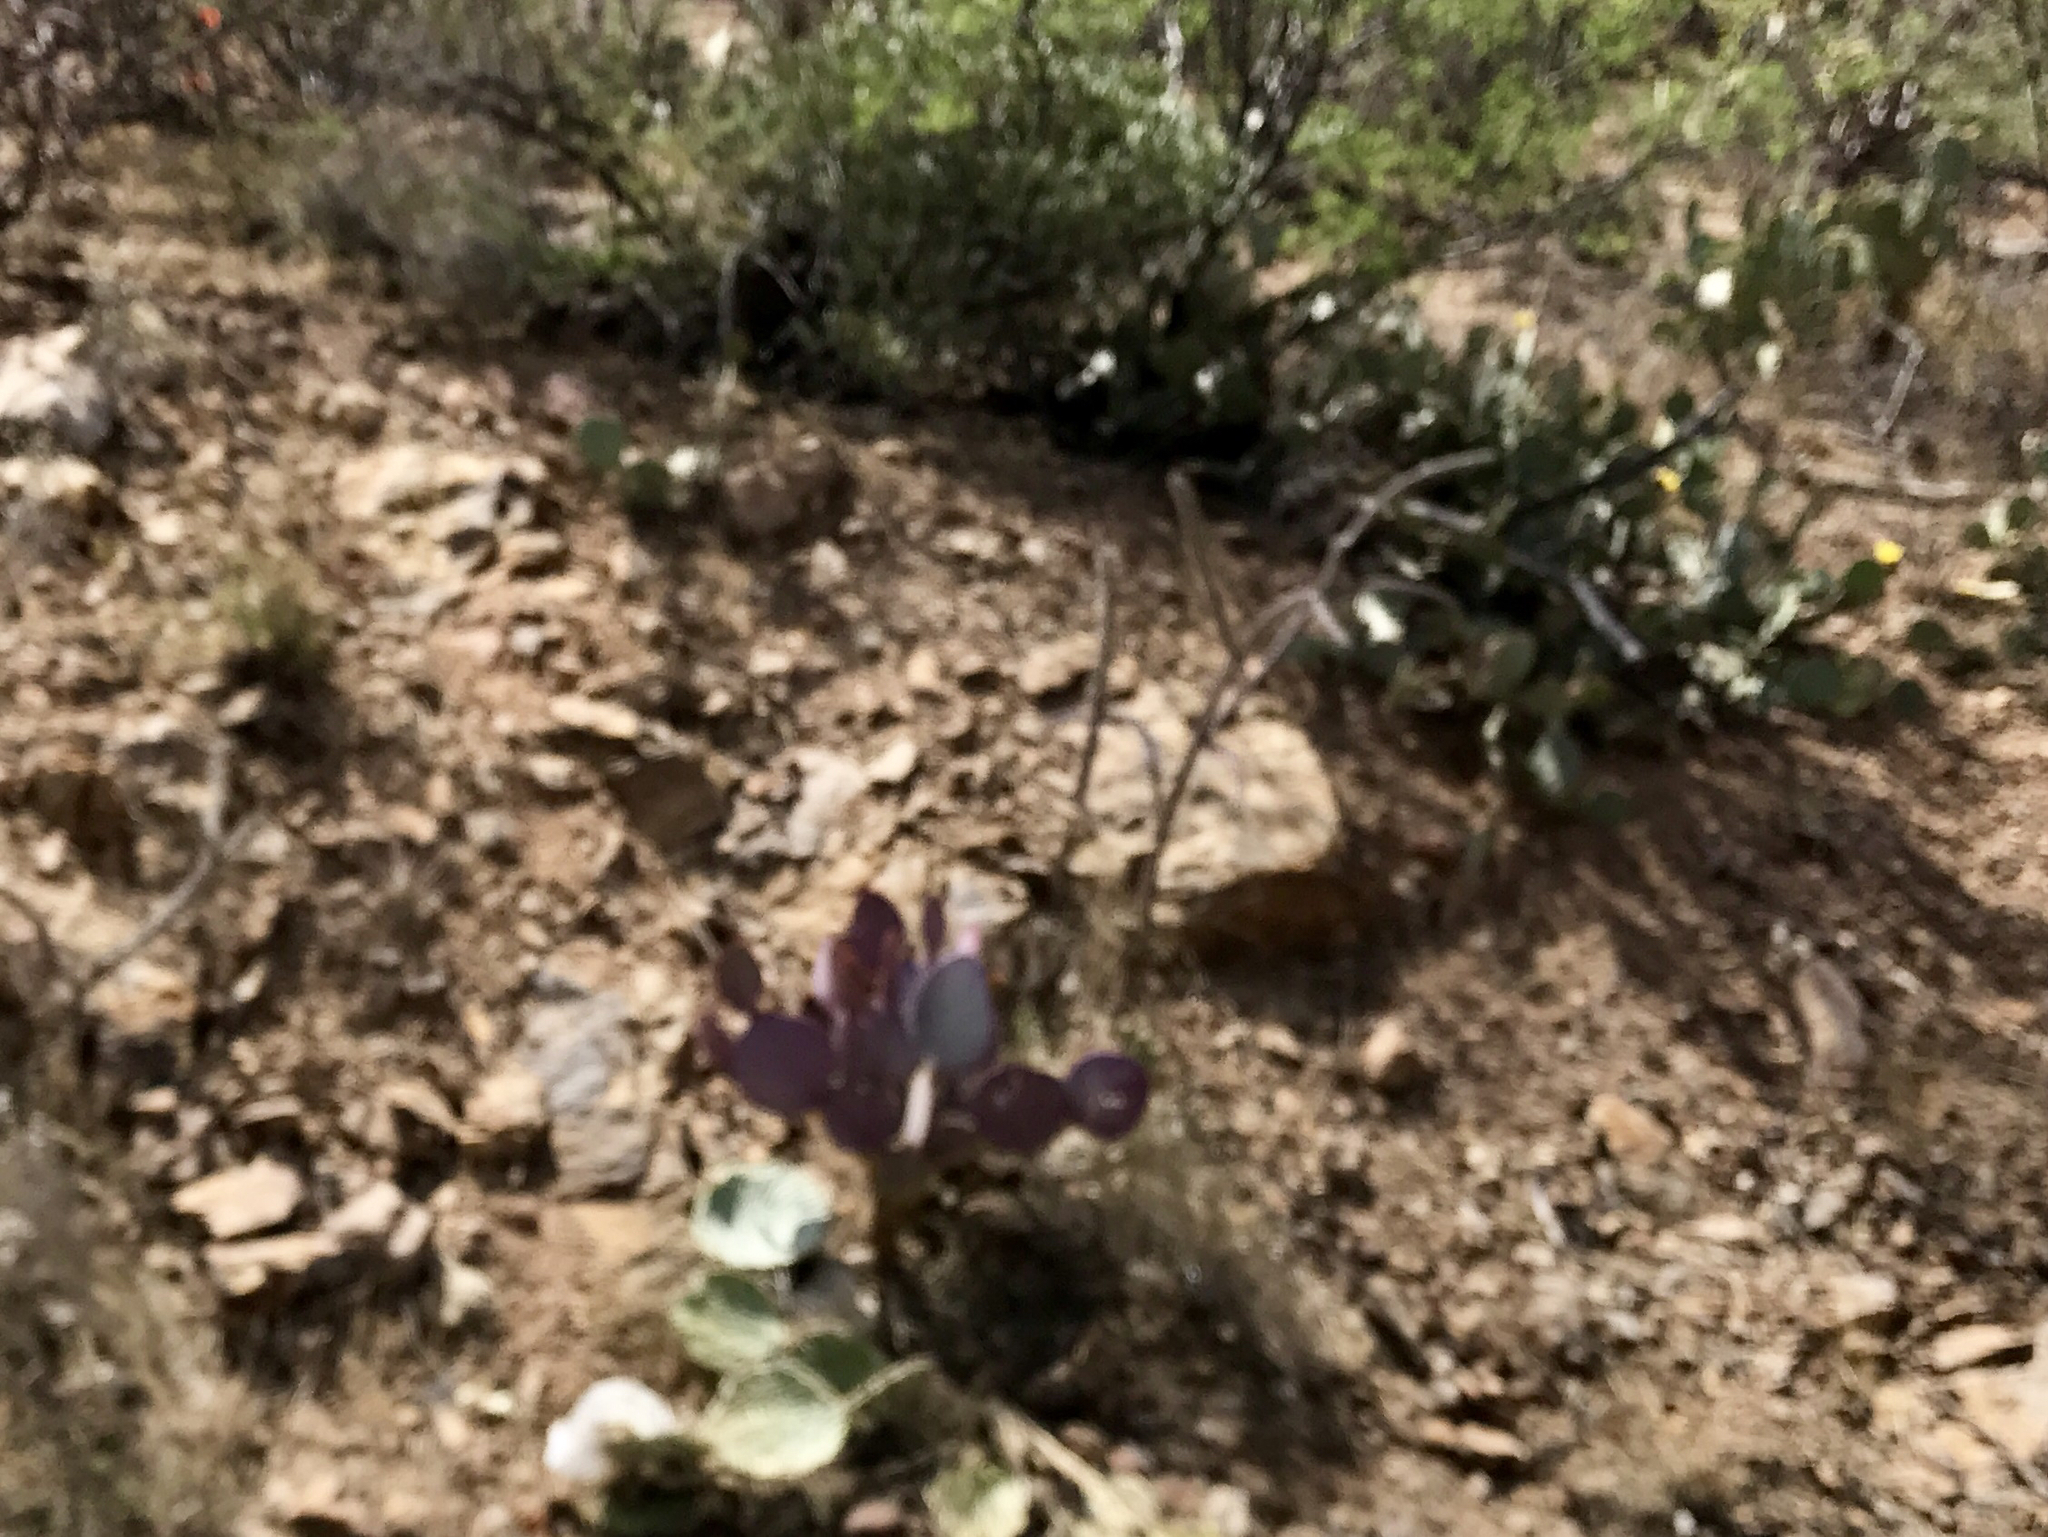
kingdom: Plantae
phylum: Tracheophyta
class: Magnoliopsida
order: Caryophyllales
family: Cactaceae
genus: Opuntia
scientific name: Opuntia gosseliniana
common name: Violet prickly-pear
